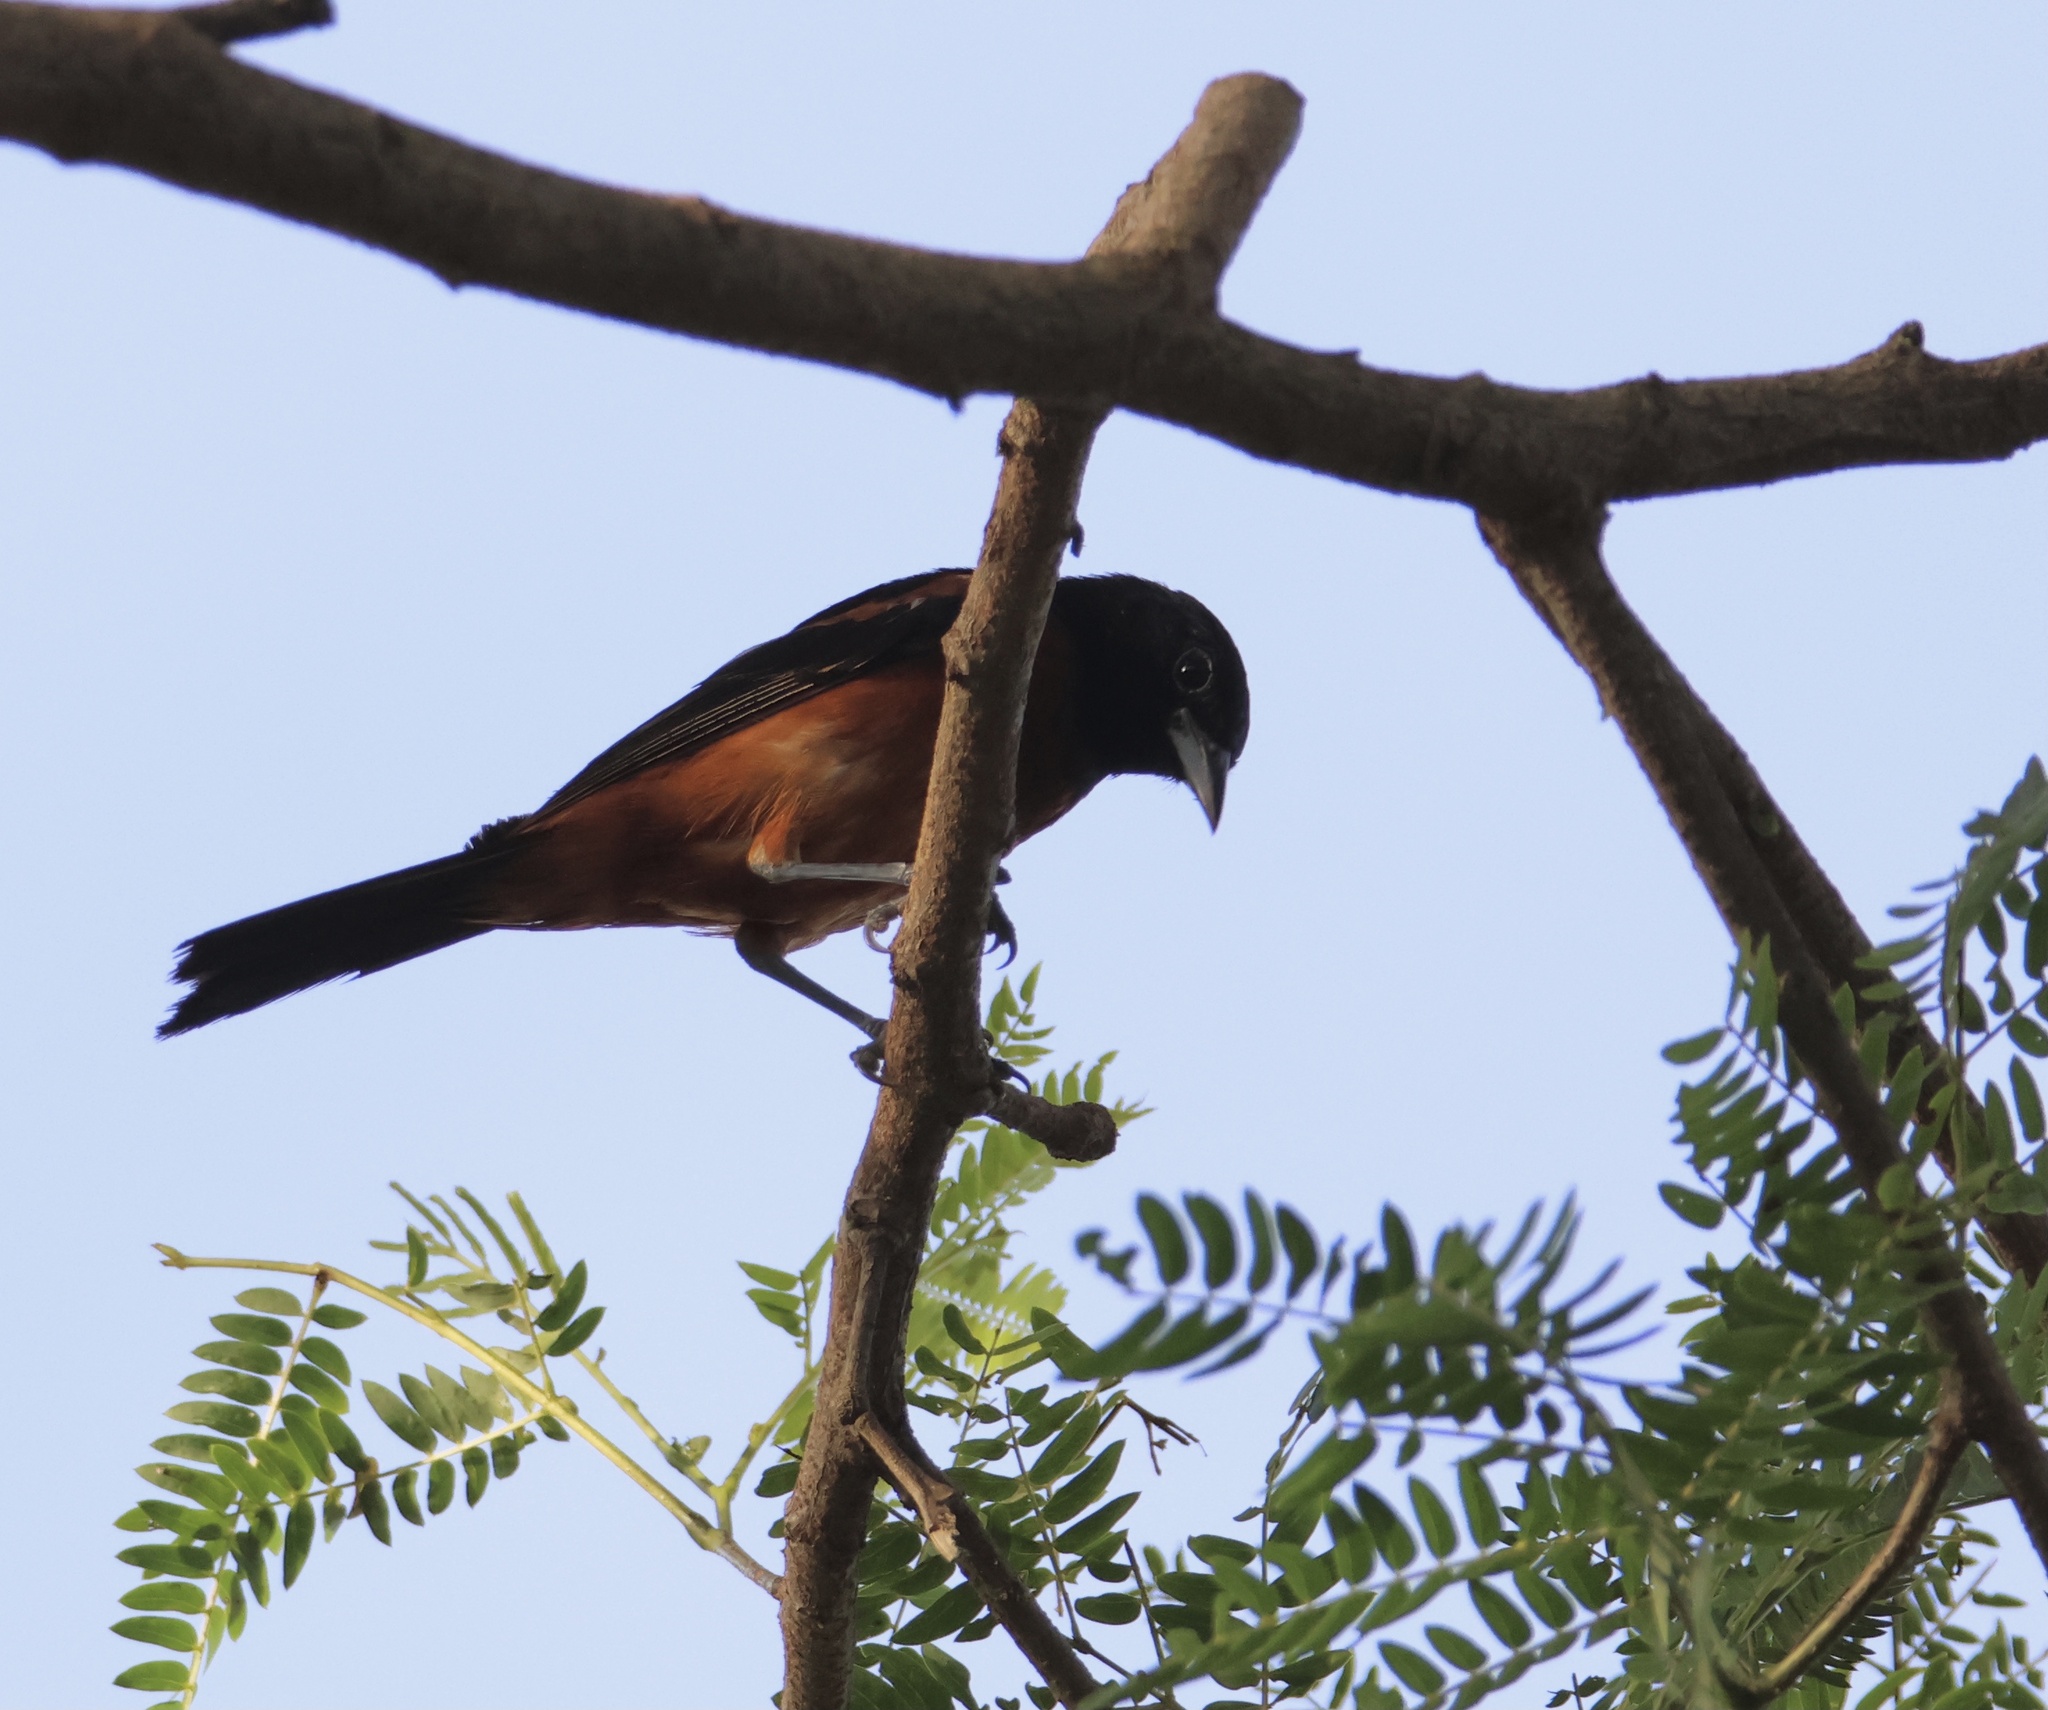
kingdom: Animalia
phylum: Chordata
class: Aves
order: Passeriformes
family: Icteridae
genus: Icterus
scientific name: Icterus spurius
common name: Orchard oriole
